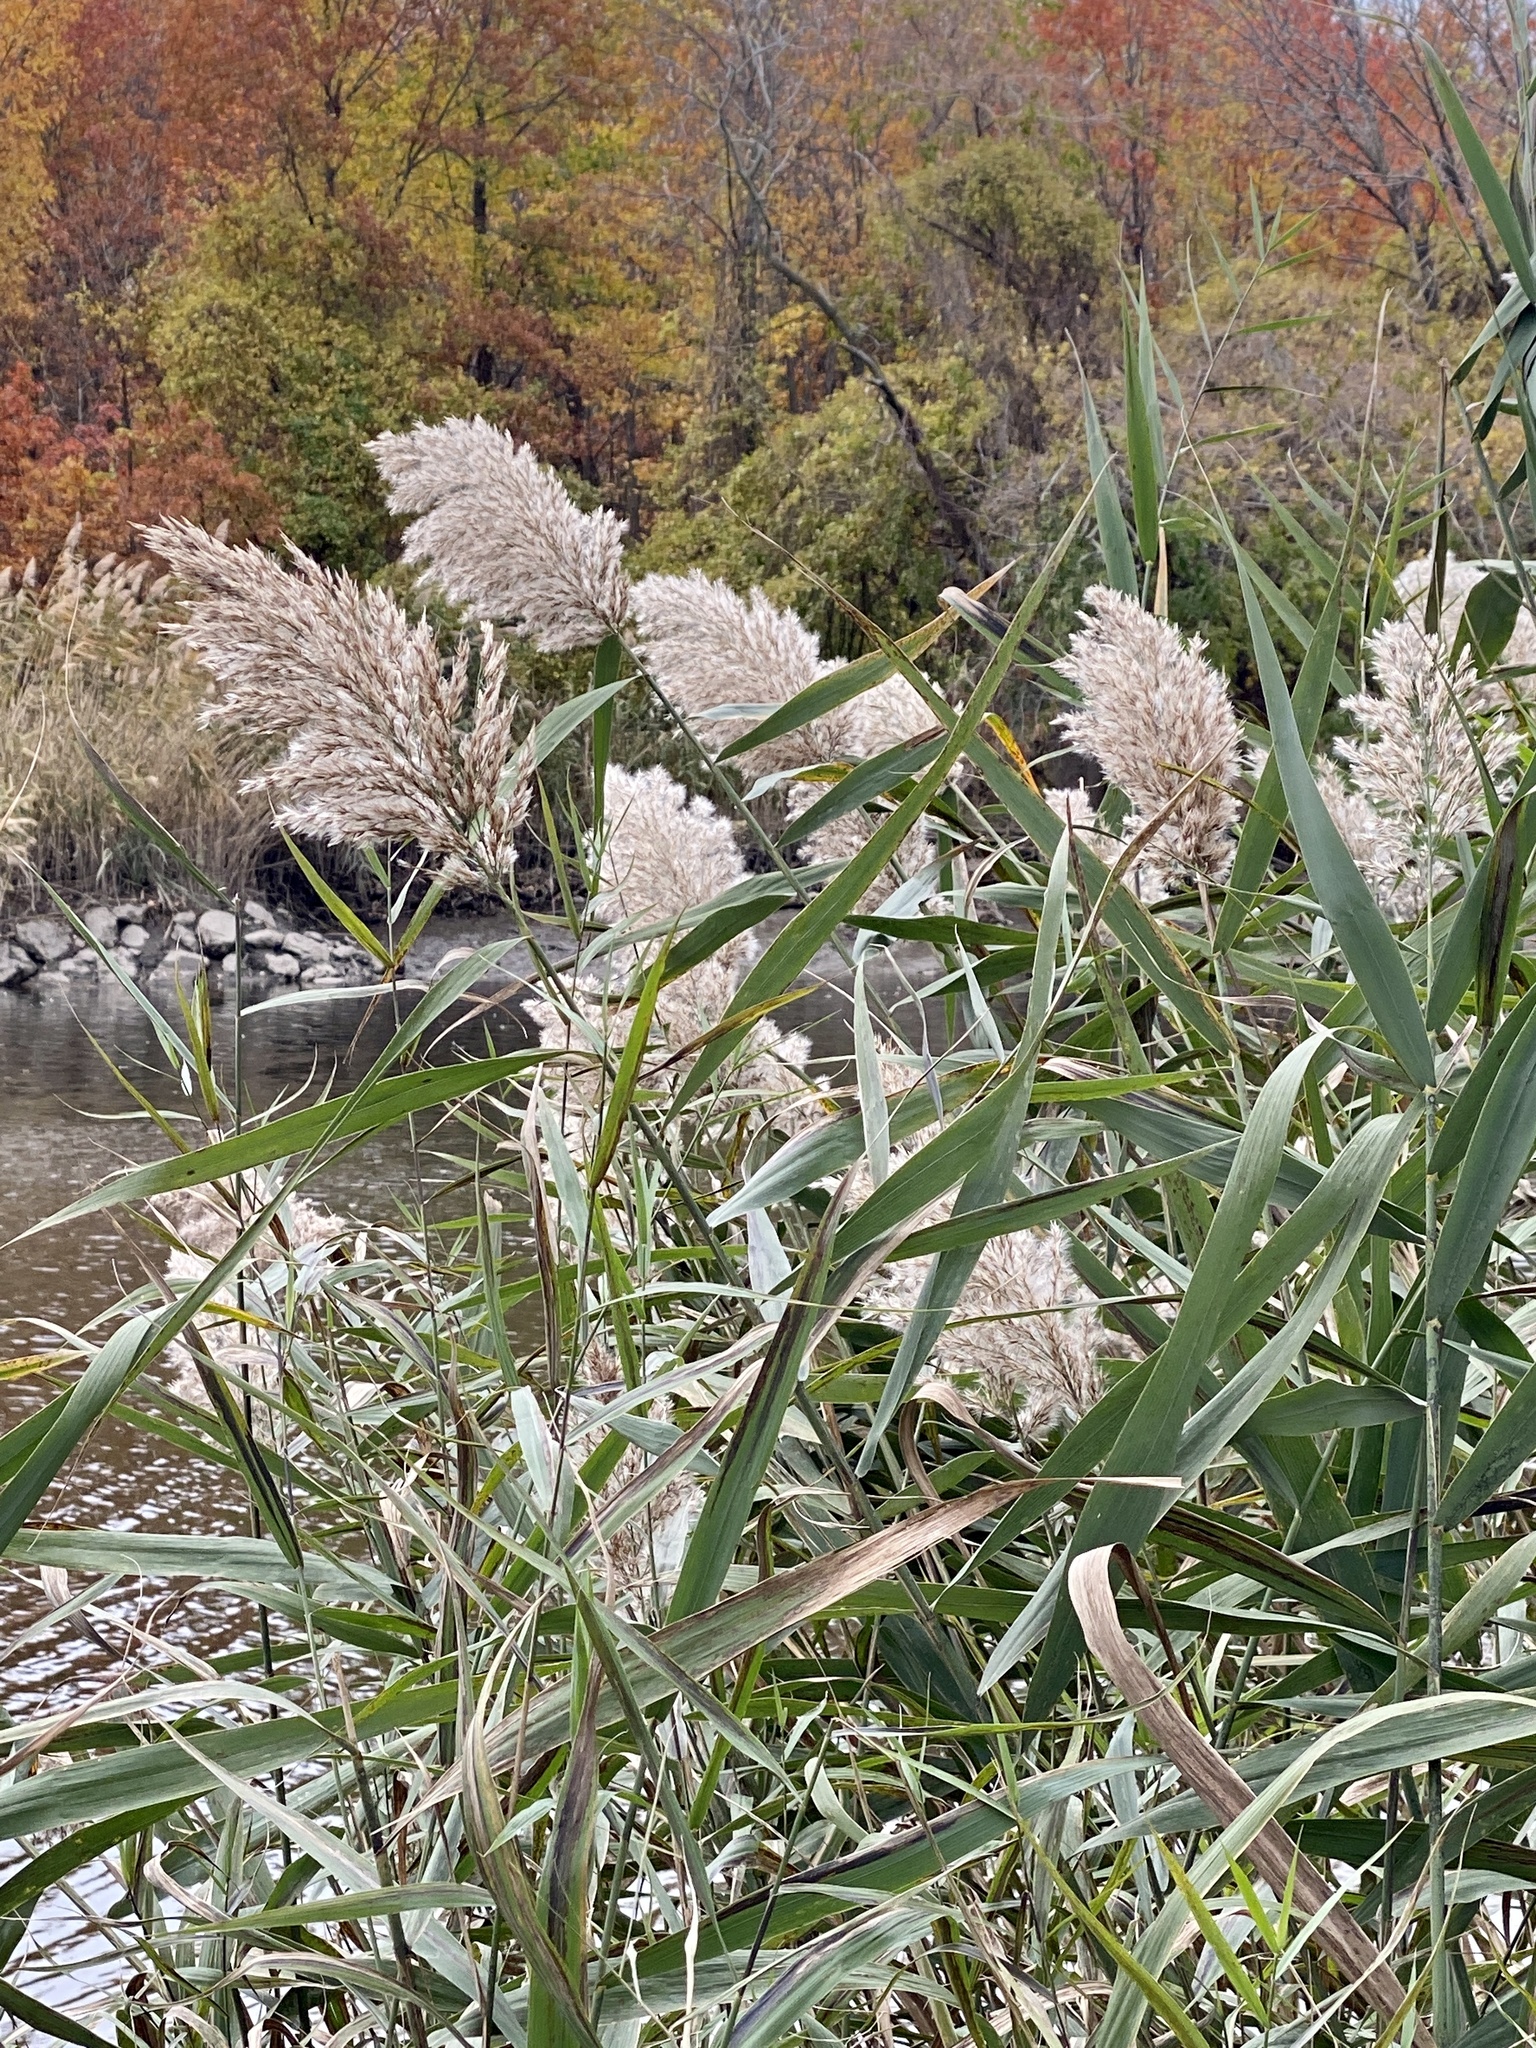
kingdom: Plantae
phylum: Tracheophyta
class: Liliopsida
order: Poales
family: Poaceae
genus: Phragmites
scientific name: Phragmites australis
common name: Common reed
